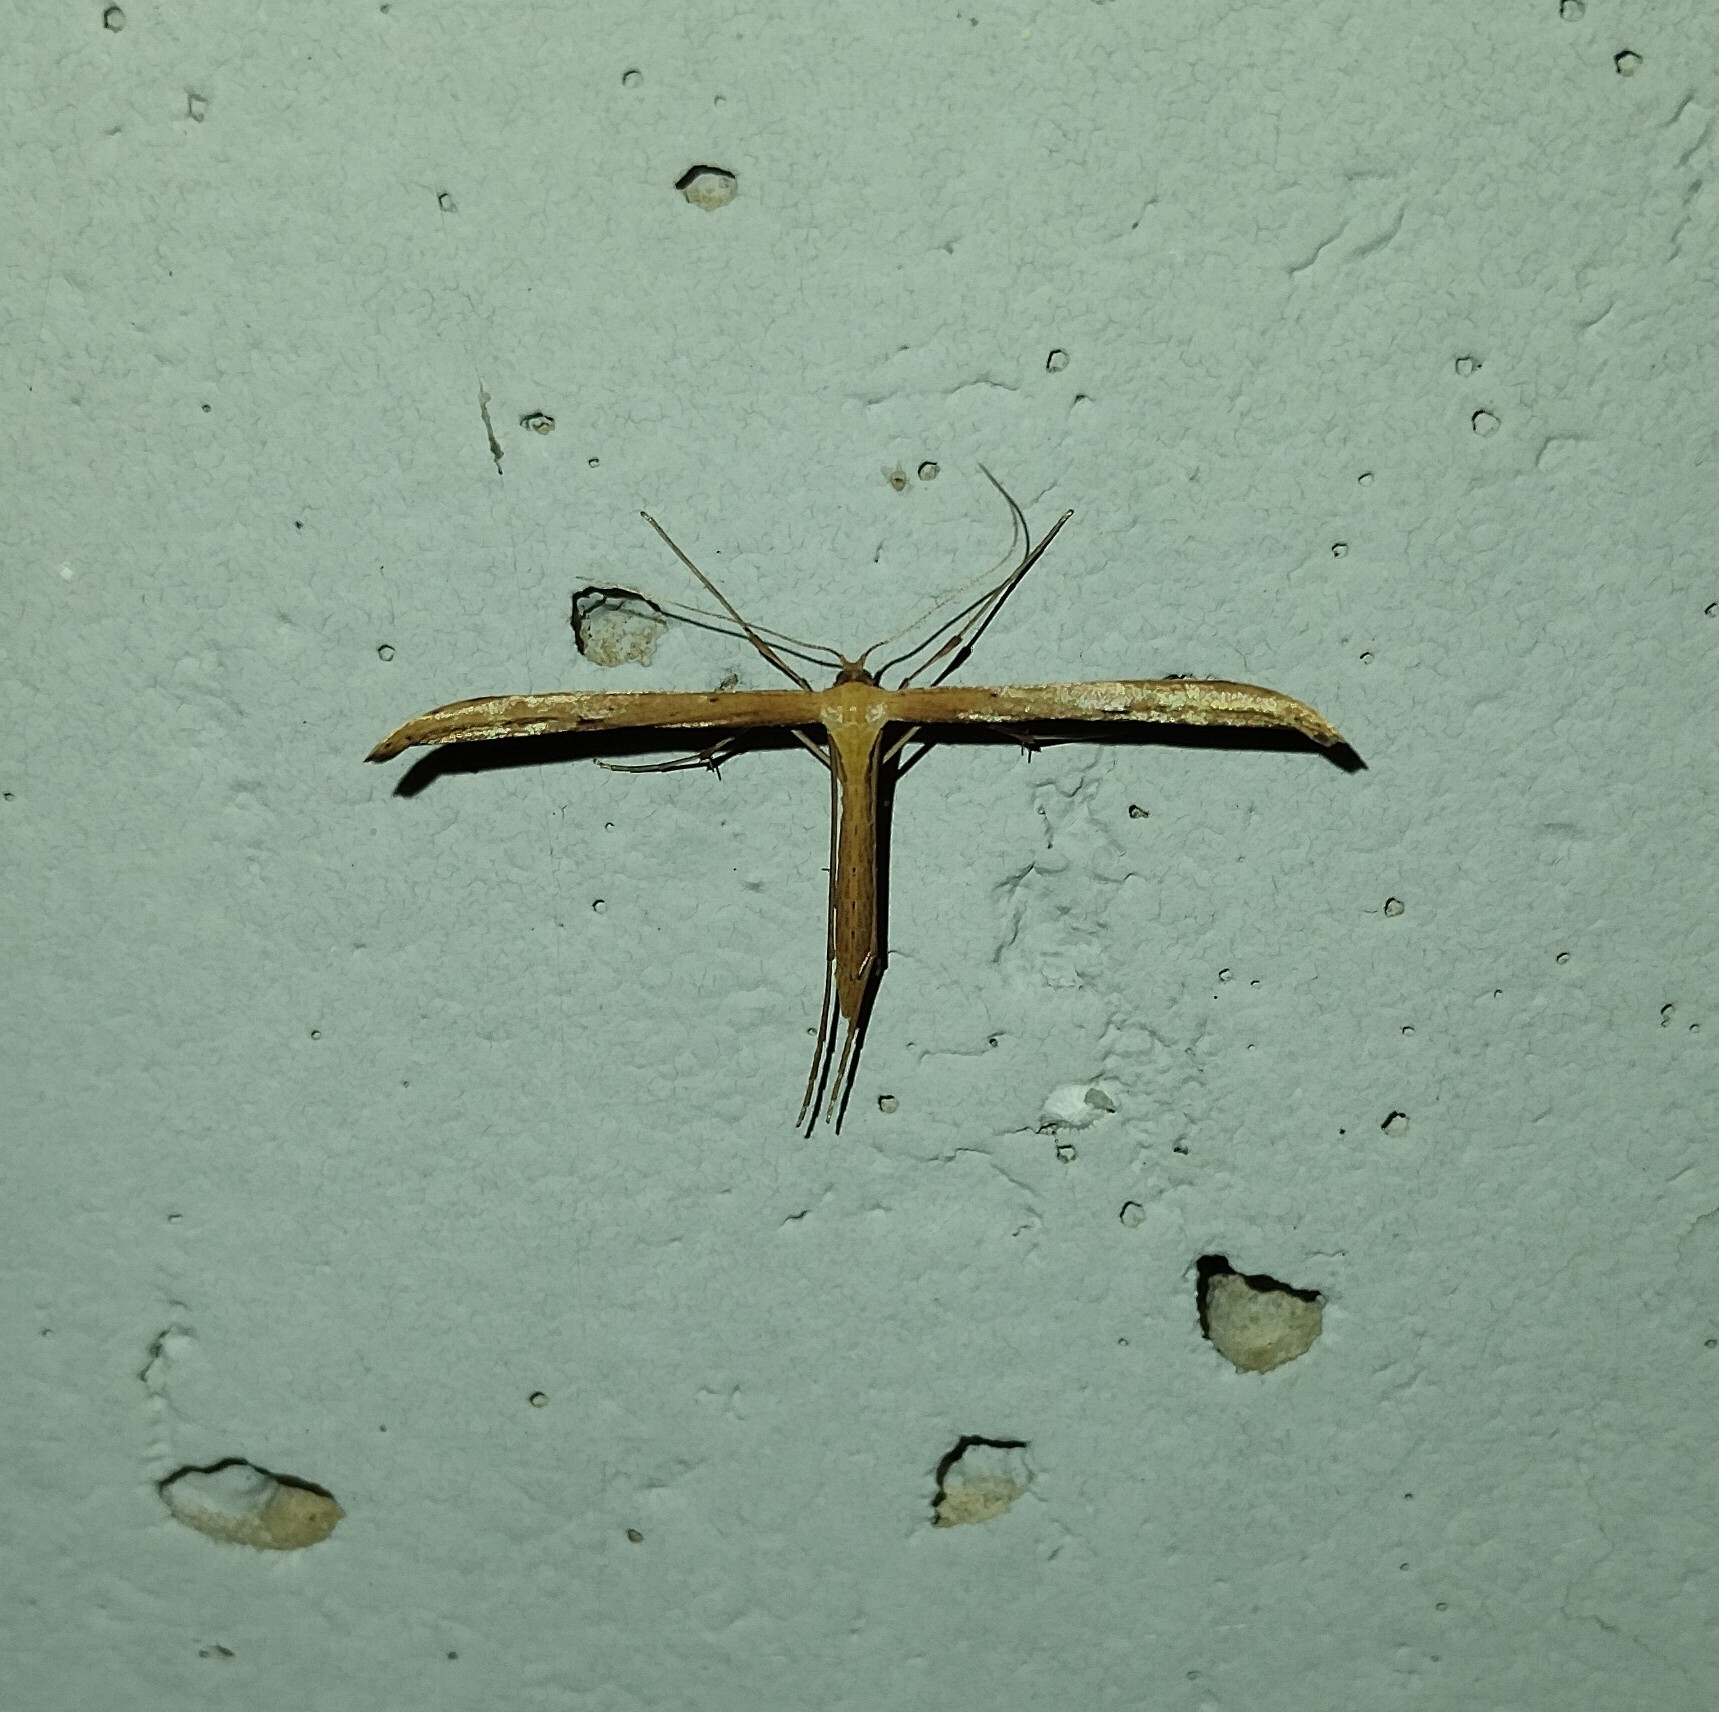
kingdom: Animalia
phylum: Arthropoda
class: Insecta
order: Lepidoptera
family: Pterophoridae
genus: Emmelina
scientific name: Emmelina monodactyla
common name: Common plume
